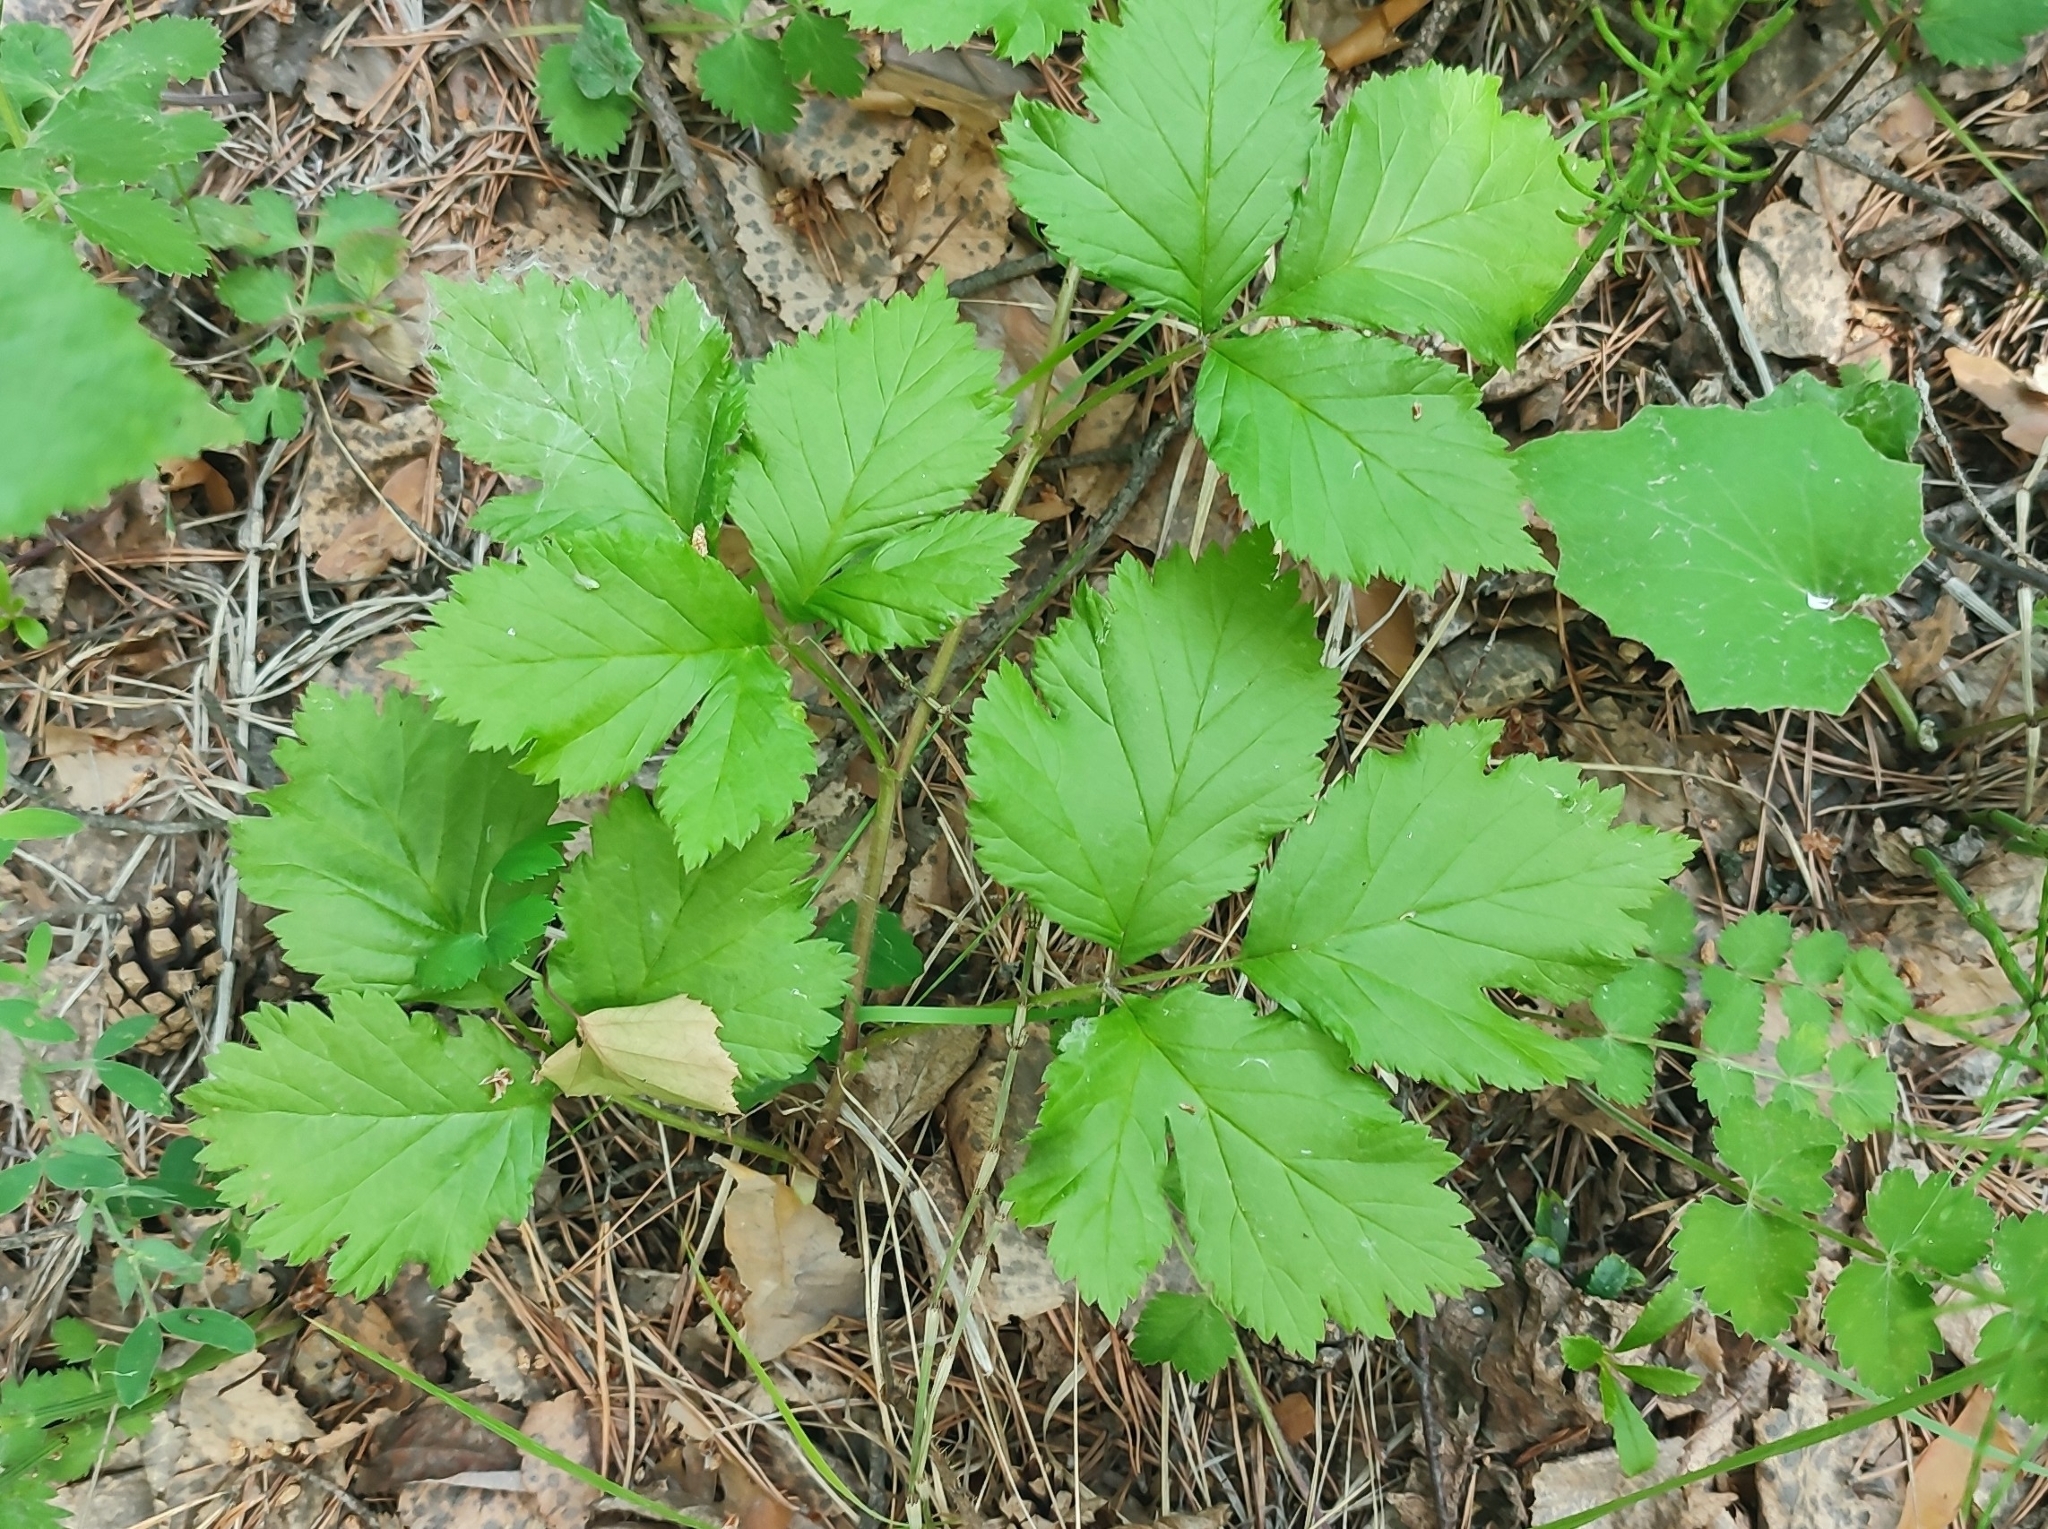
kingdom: Plantae
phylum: Tracheophyta
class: Magnoliopsida
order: Rosales
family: Rosaceae
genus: Rubus
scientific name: Rubus saxatilis
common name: Stone bramble
